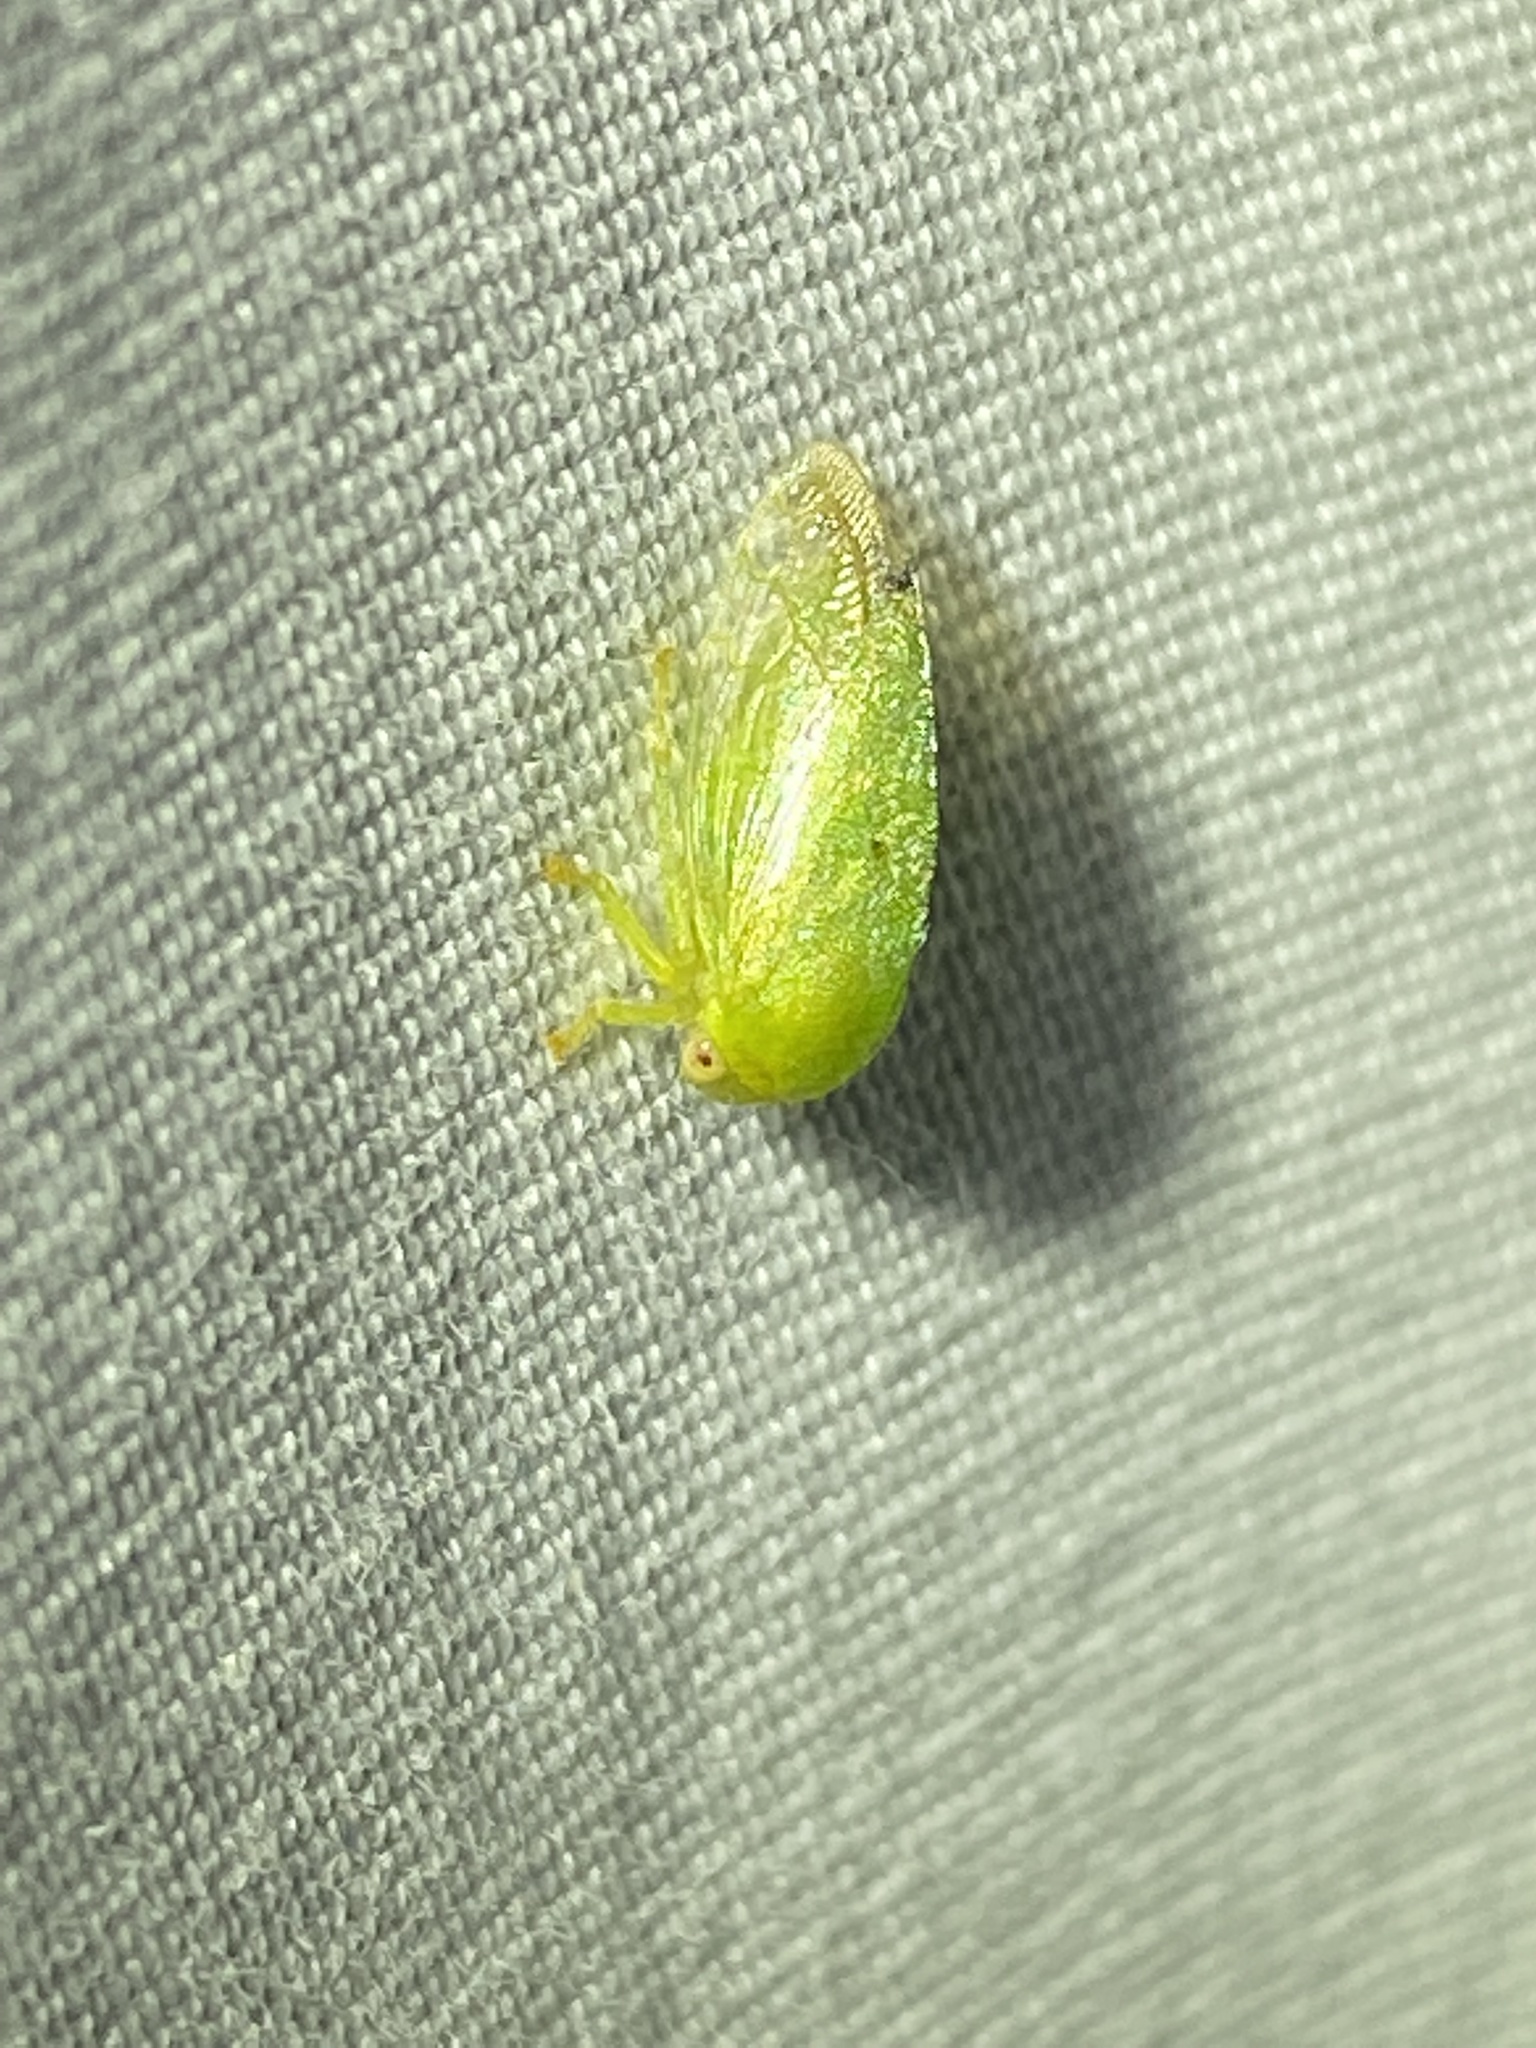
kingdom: Animalia
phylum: Arthropoda
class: Insecta
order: Hemiptera
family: Membracidae
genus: Atymna
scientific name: Atymna querci
